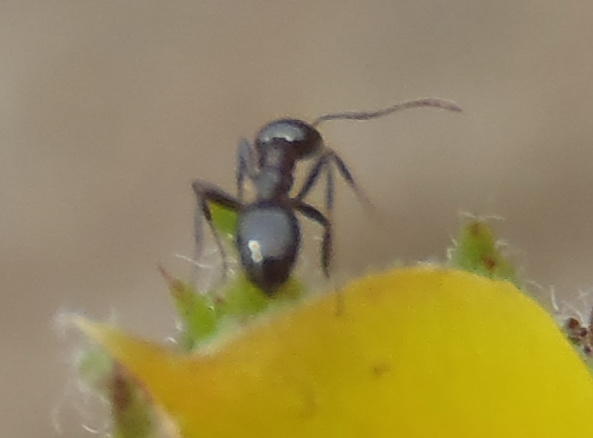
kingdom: Animalia
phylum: Arthropoda
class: Insecta
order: Hymenoptera
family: Formicidae
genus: Myrmicaria
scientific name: Myrmicaria nigra
